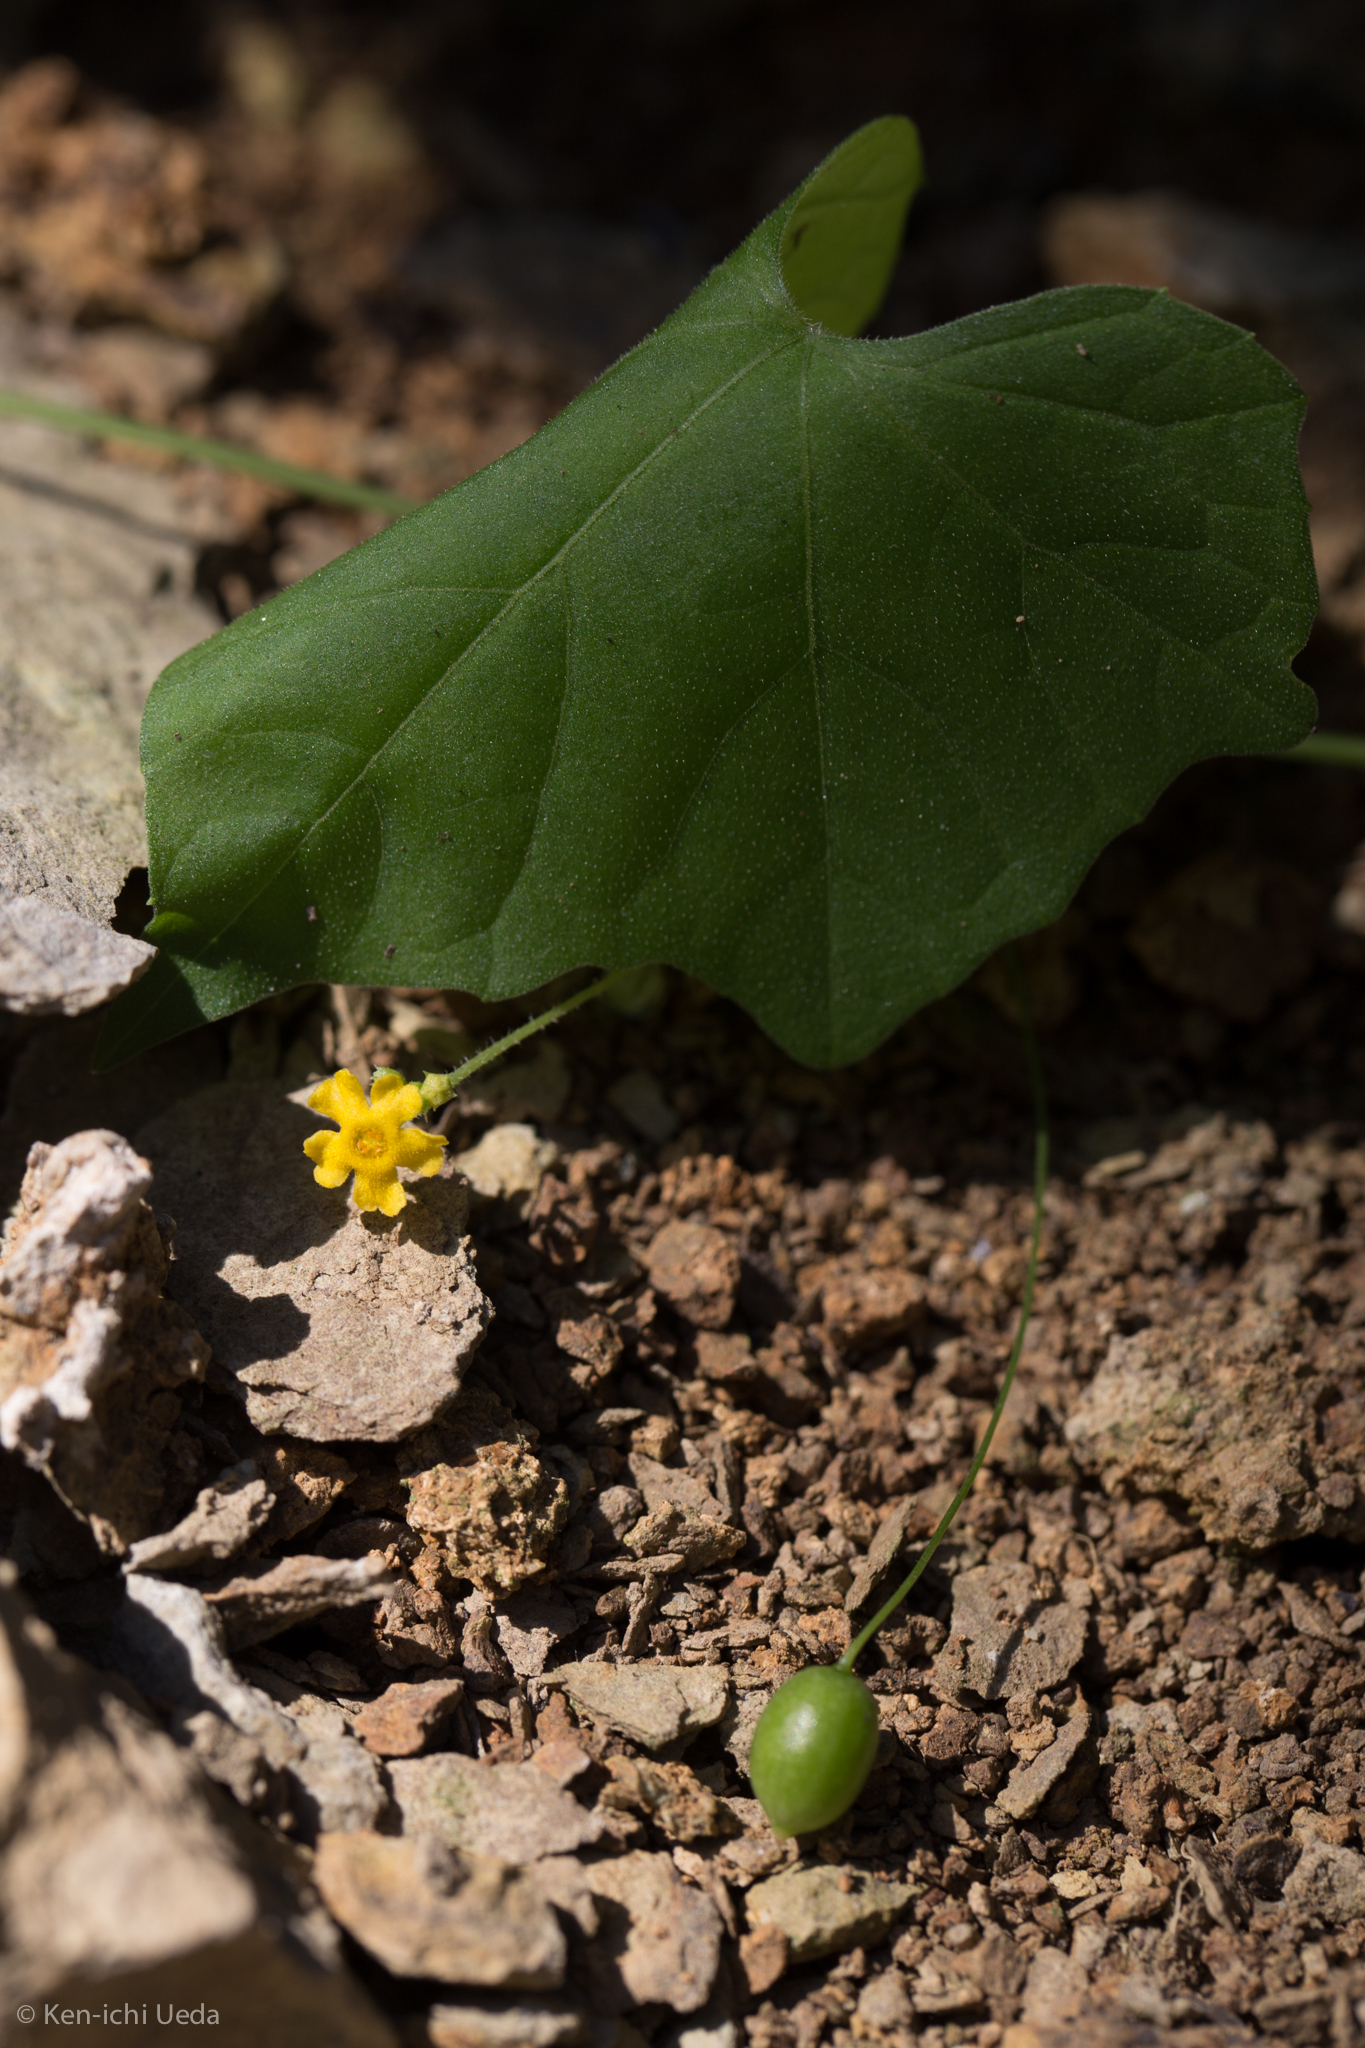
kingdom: Plantae
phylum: Tracheophyta
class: Magnoliopsida
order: Cucurbitales
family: Cucurbitaceae
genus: Melothria
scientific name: Melothria pendula
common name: Creeping-cucumber
